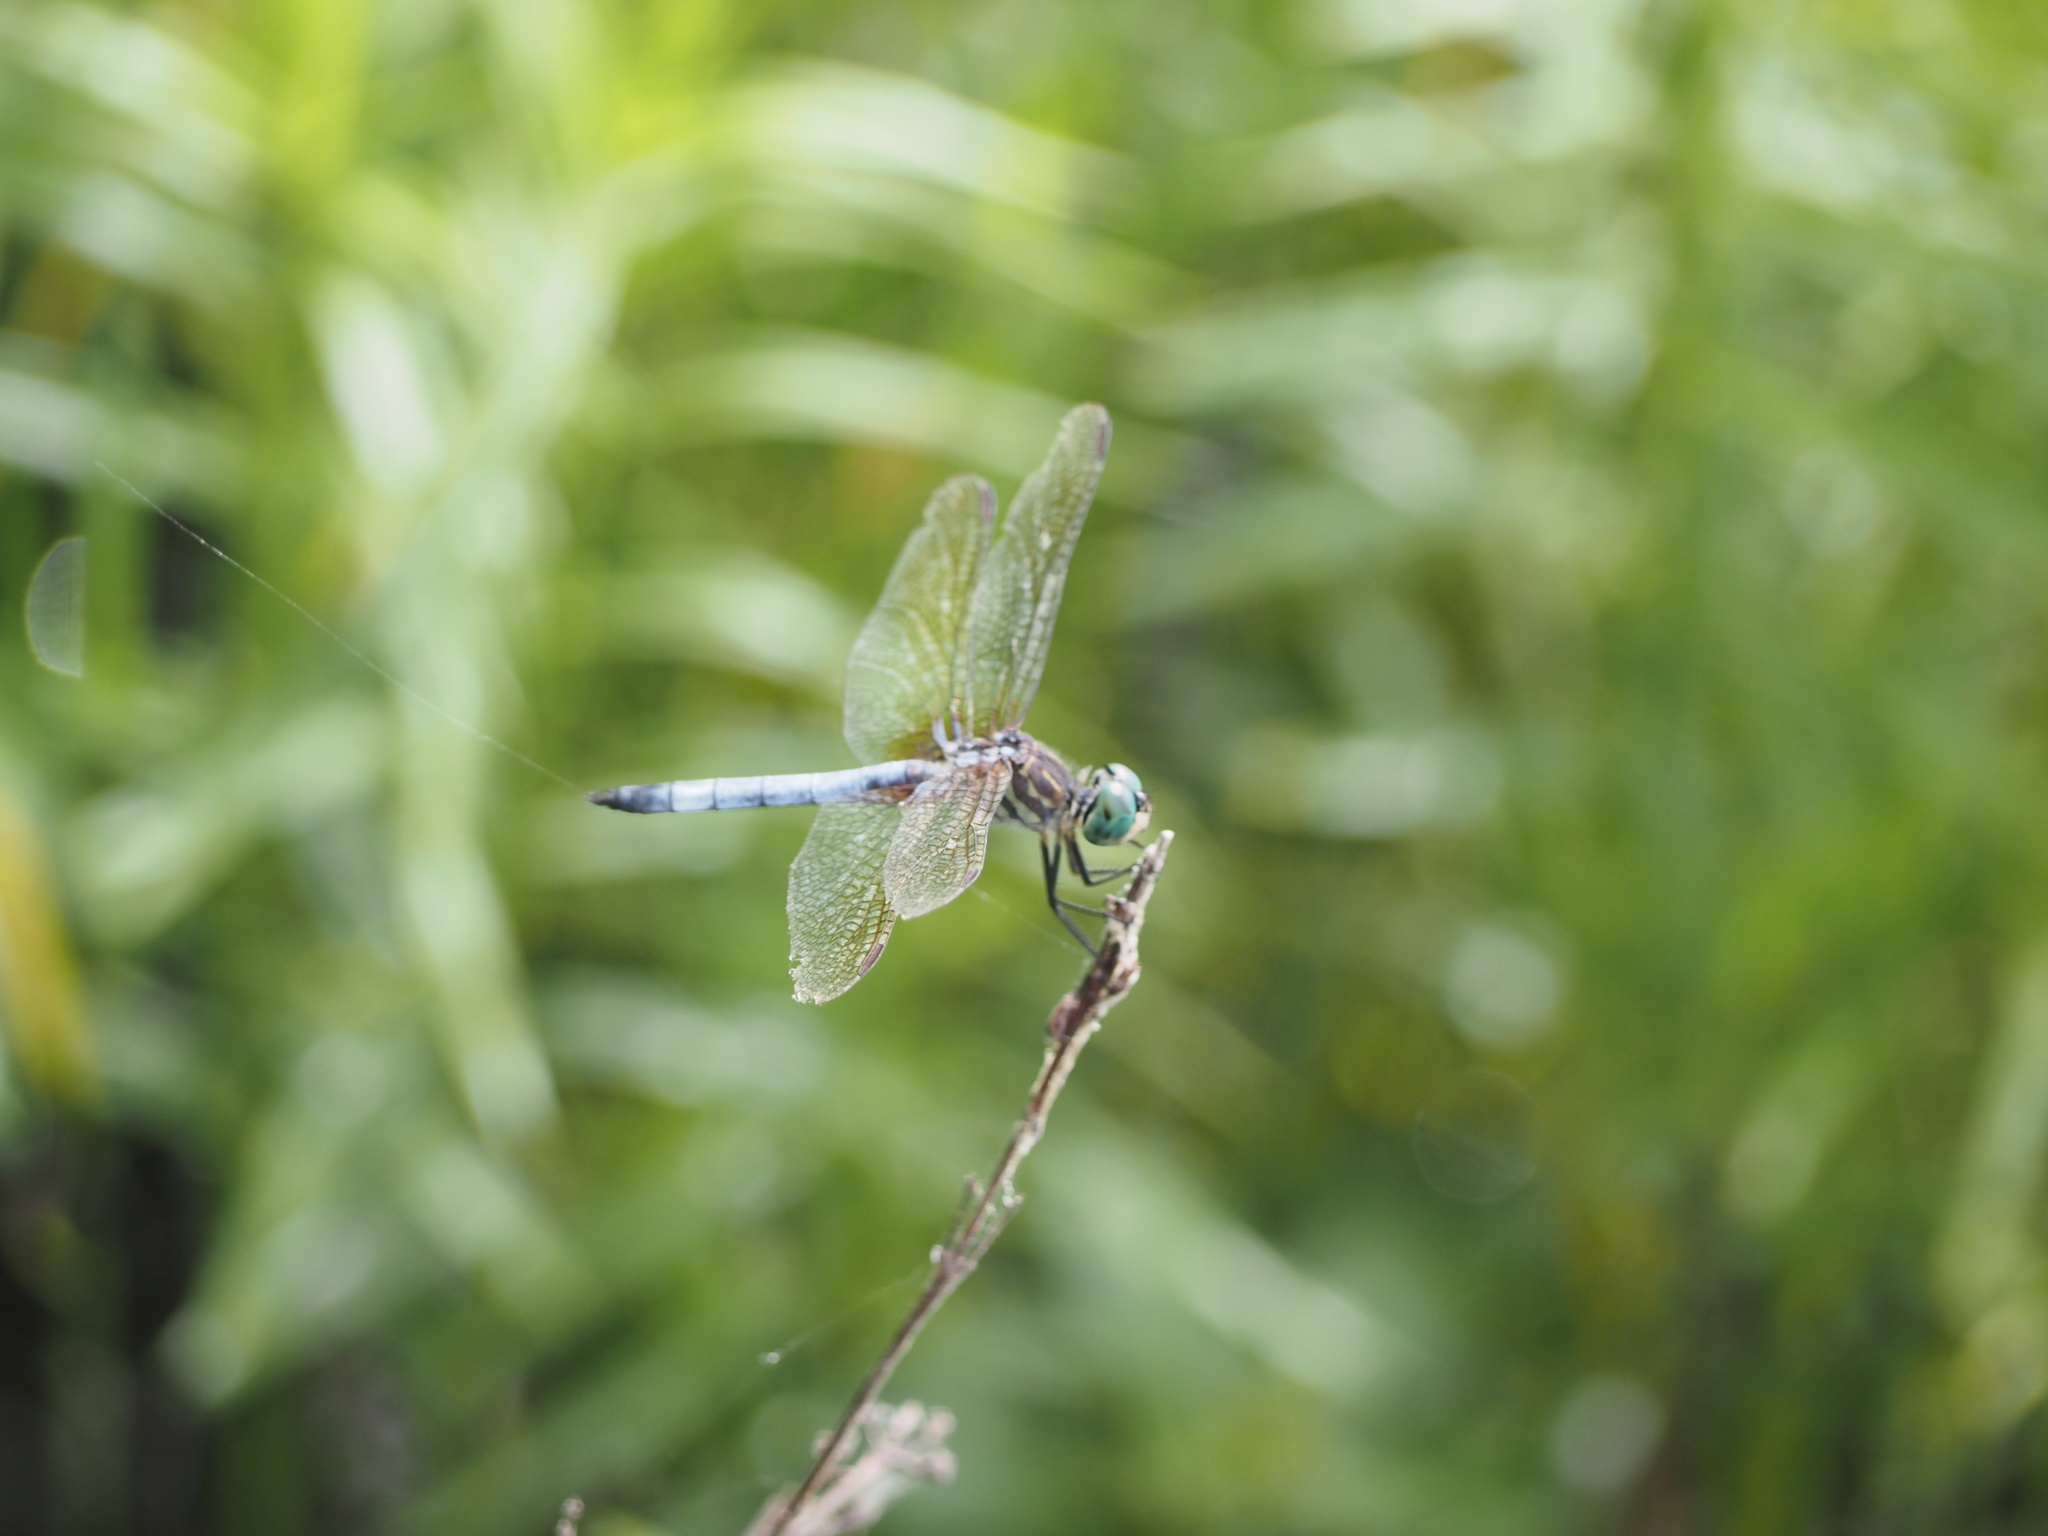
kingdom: Animalia
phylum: Arthropoda
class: Insecta
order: Odonata
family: Libellulidae
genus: Pachydiplax
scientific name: Pachydiplax longipennis
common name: Blue dasher
